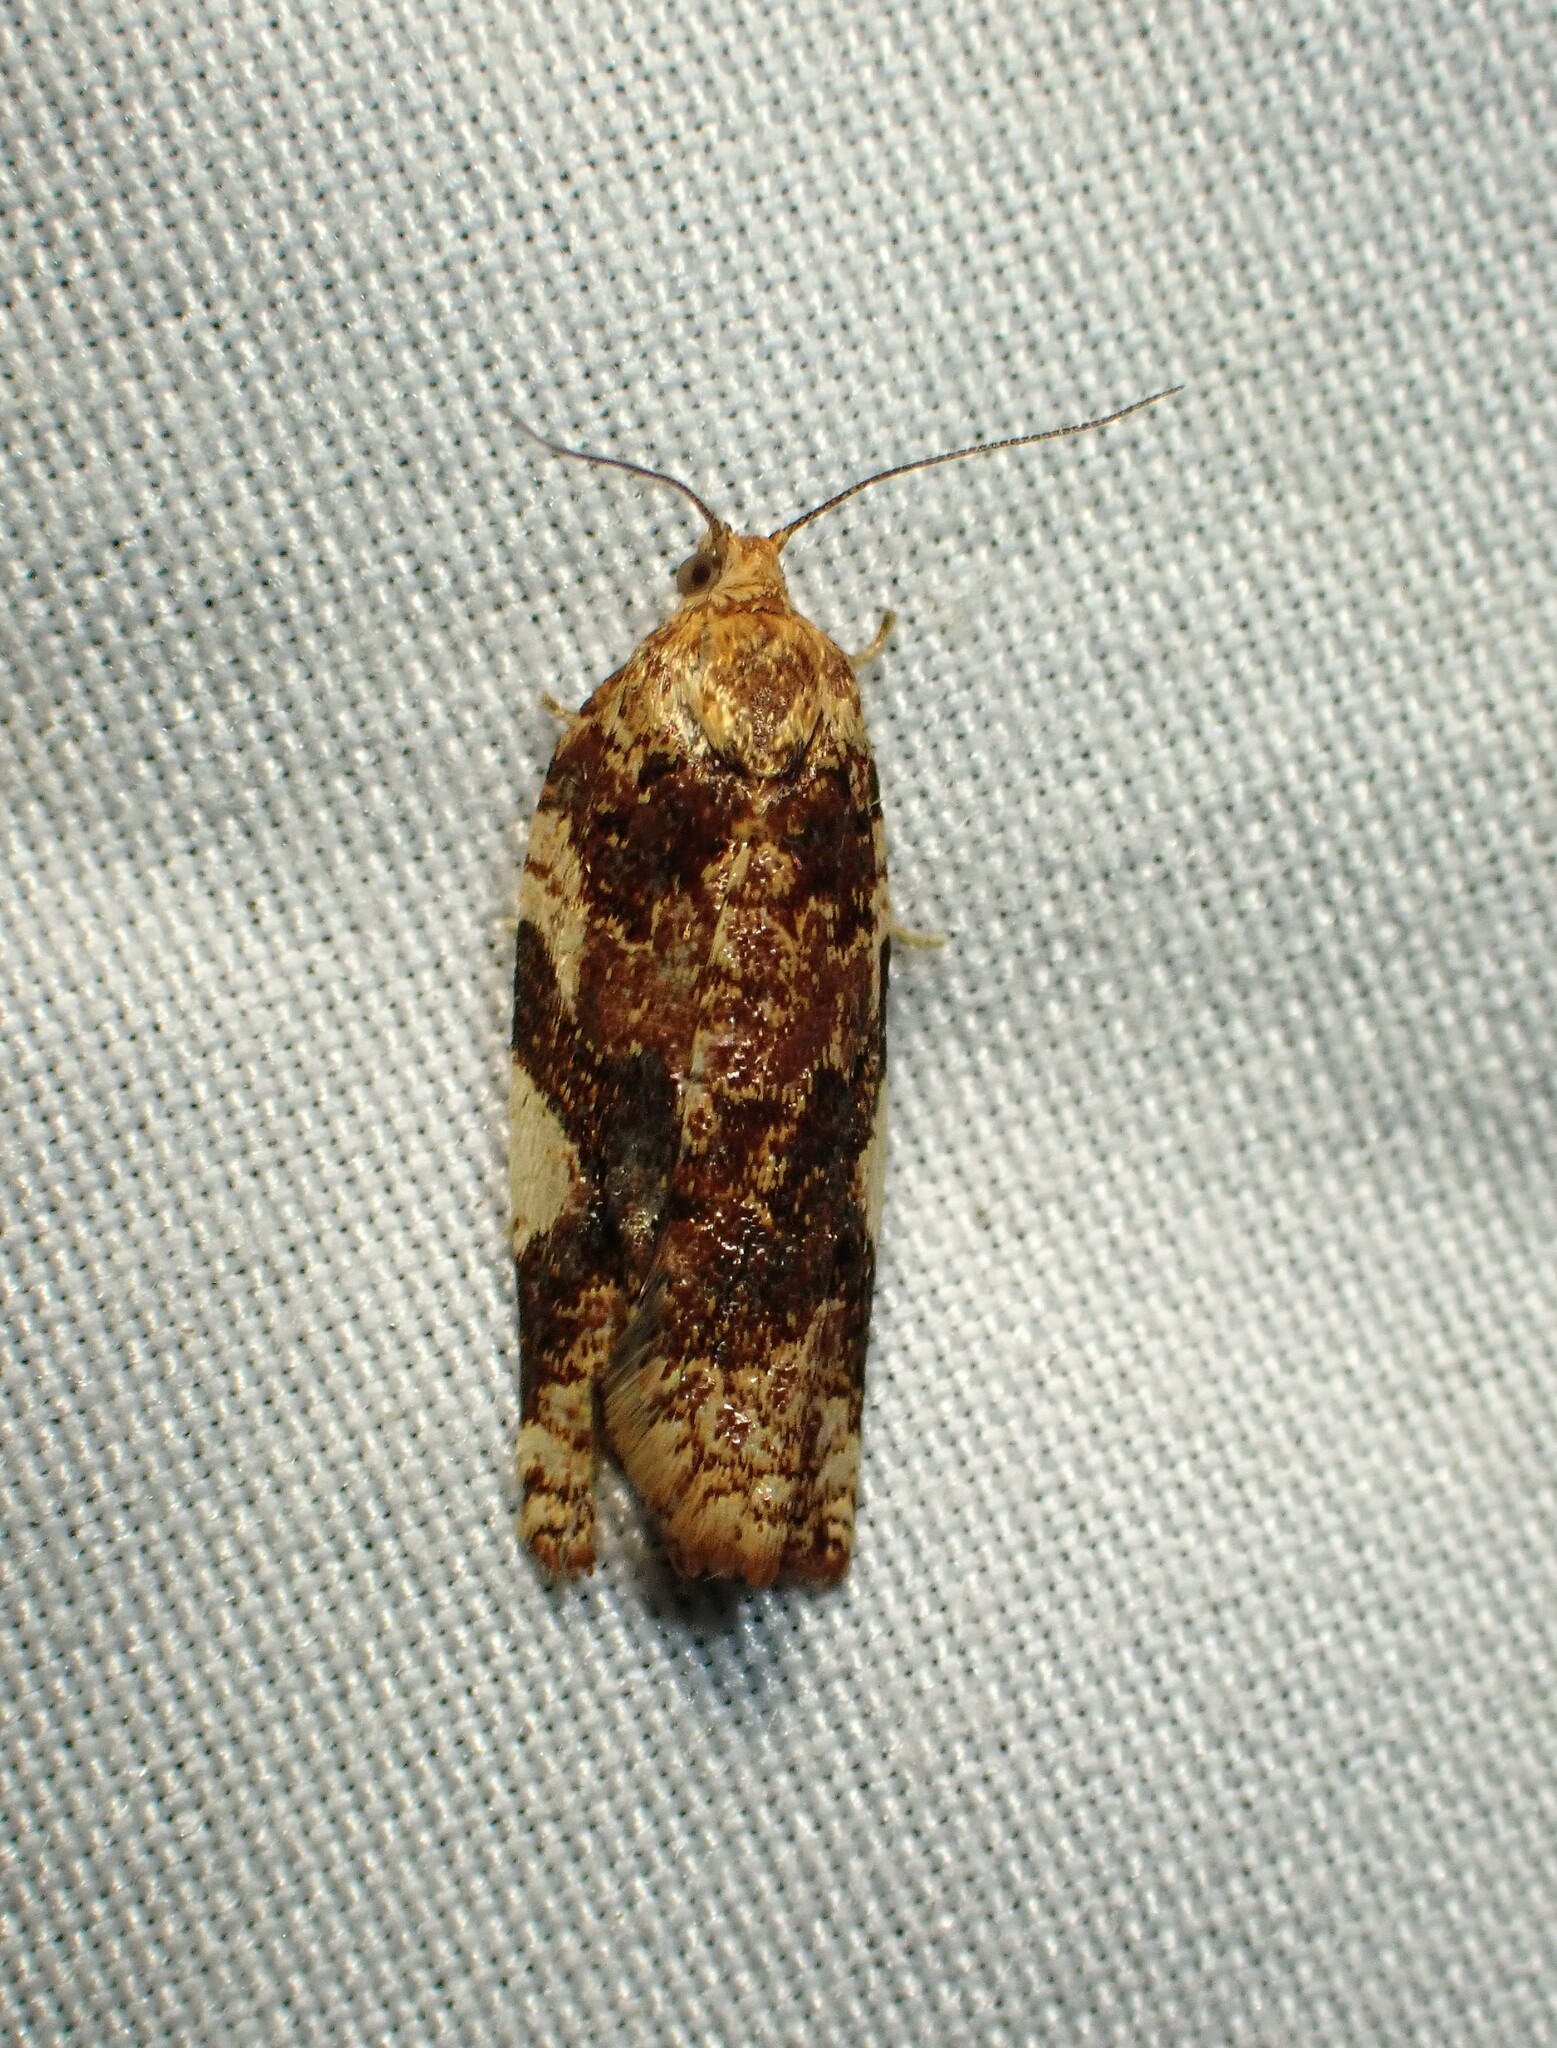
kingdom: Animalia
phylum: Arthropoda
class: Insecta
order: Lepidoptera
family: Tortricidae
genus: Archips
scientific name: Archips argyrospila
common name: Fruit-tree leafroller moth
